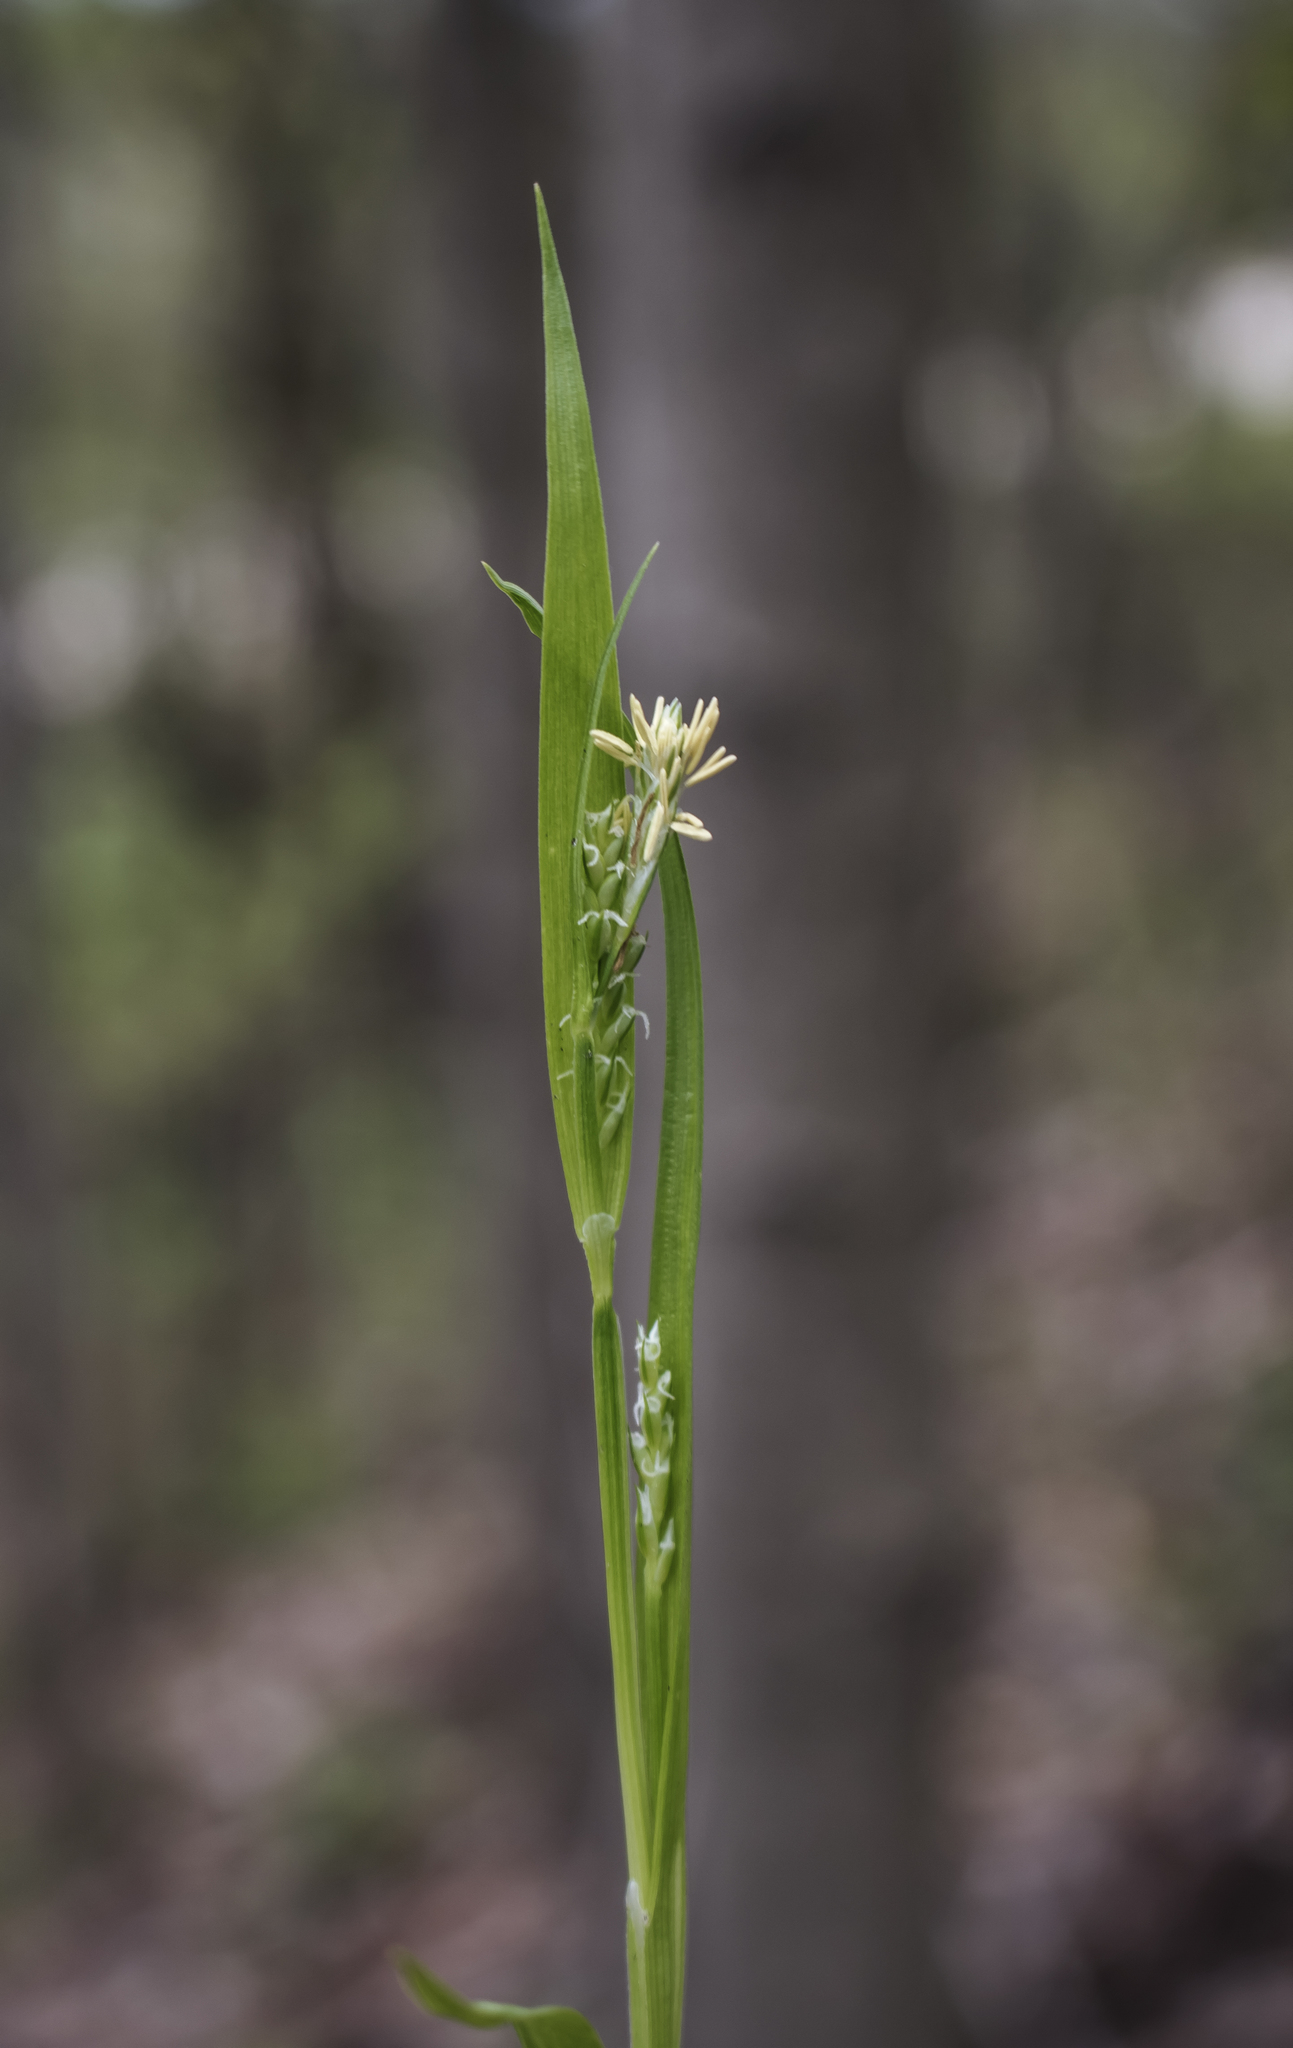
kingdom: Plantae
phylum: Tracheophyta
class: Liliopsida
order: Poales
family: Cyperaceae
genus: Carex
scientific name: Carex blanda
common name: Bland sedge
